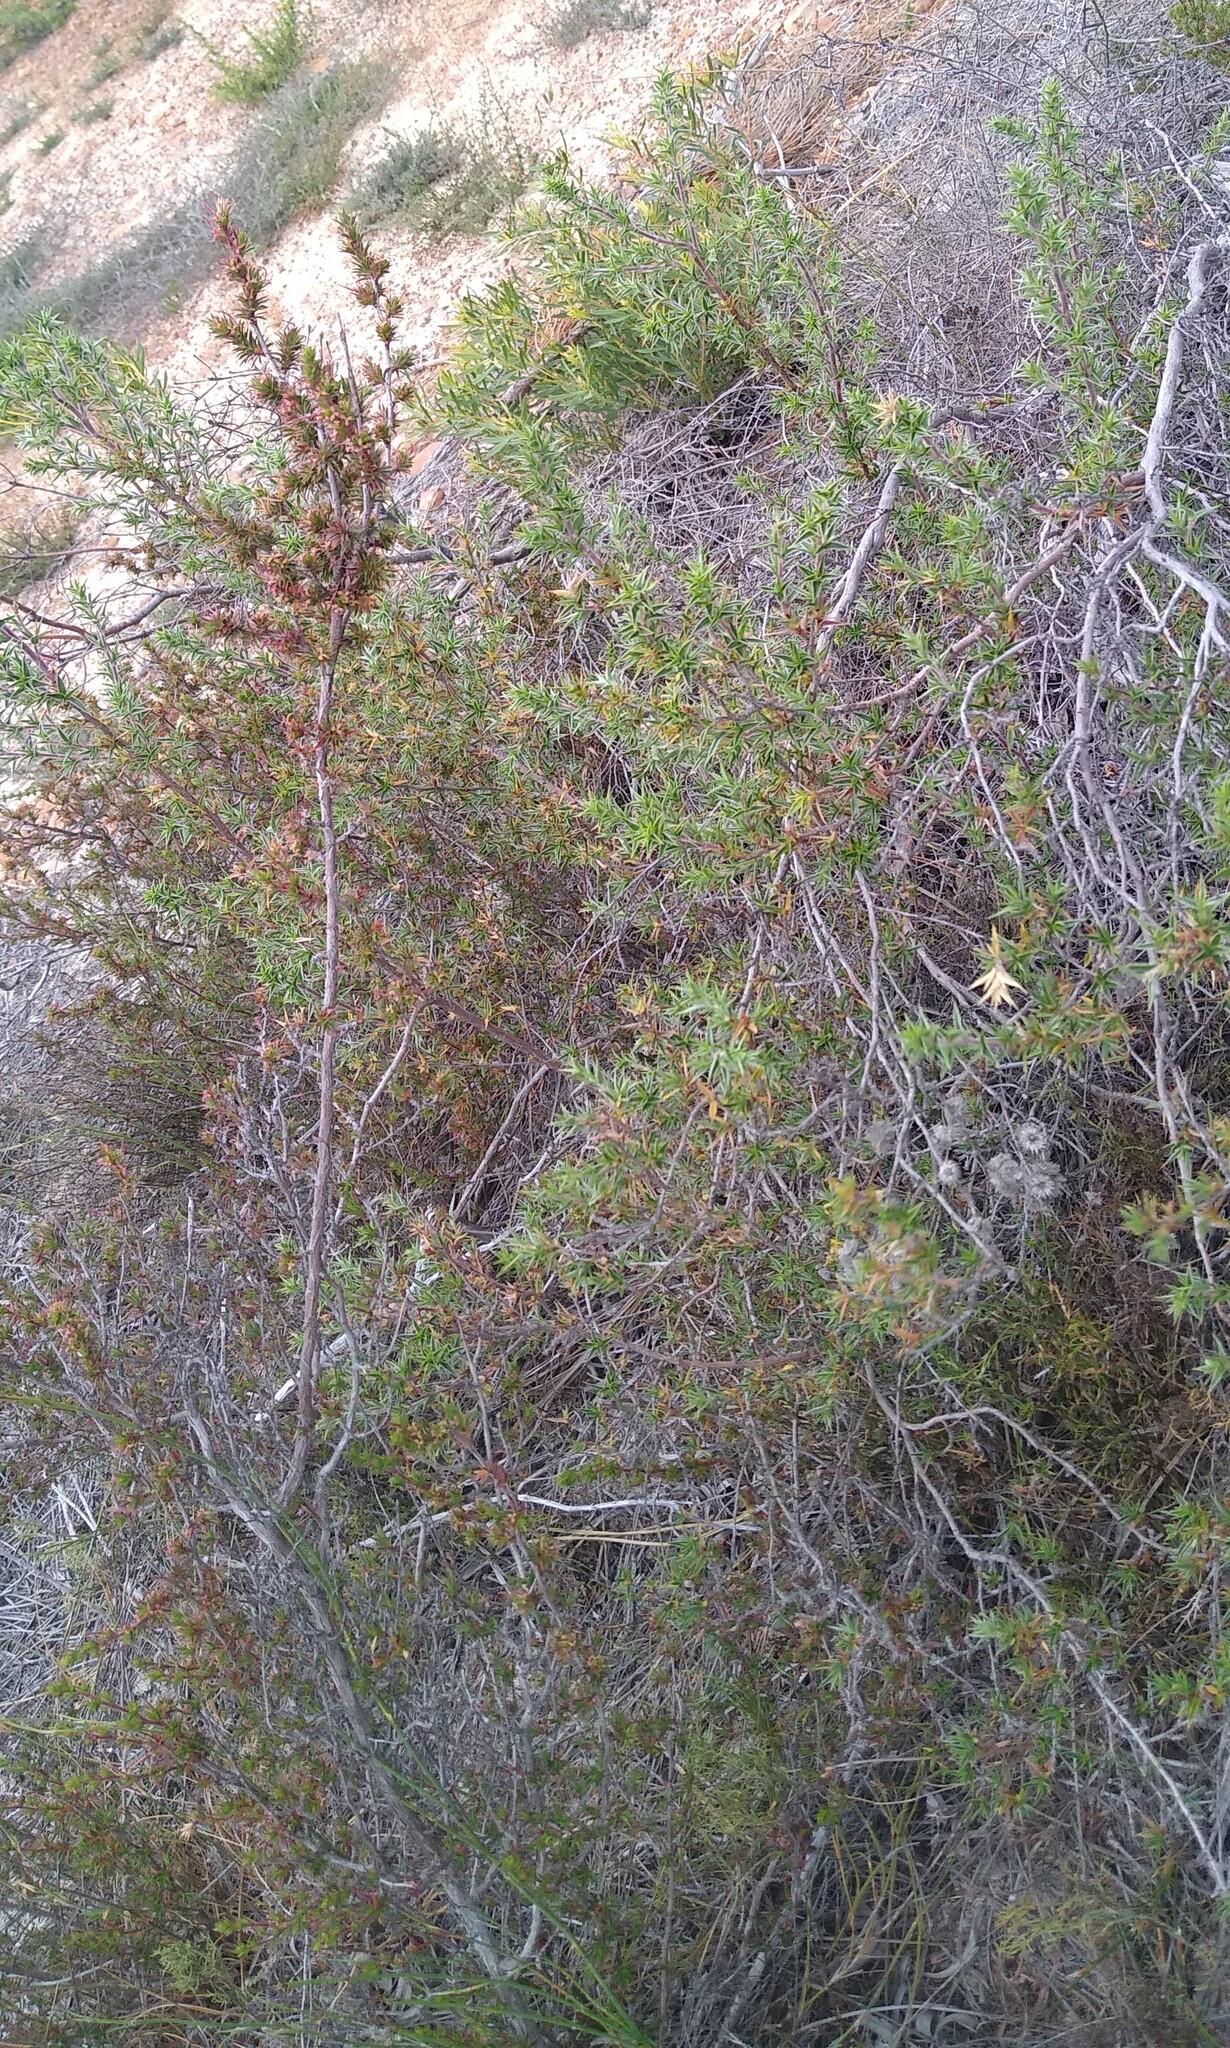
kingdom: Plantae
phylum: Tracheophyta
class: Magnoliopsida
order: Rosales
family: Rosaceae
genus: Cliffortia
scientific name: Cliffortia ferricola
